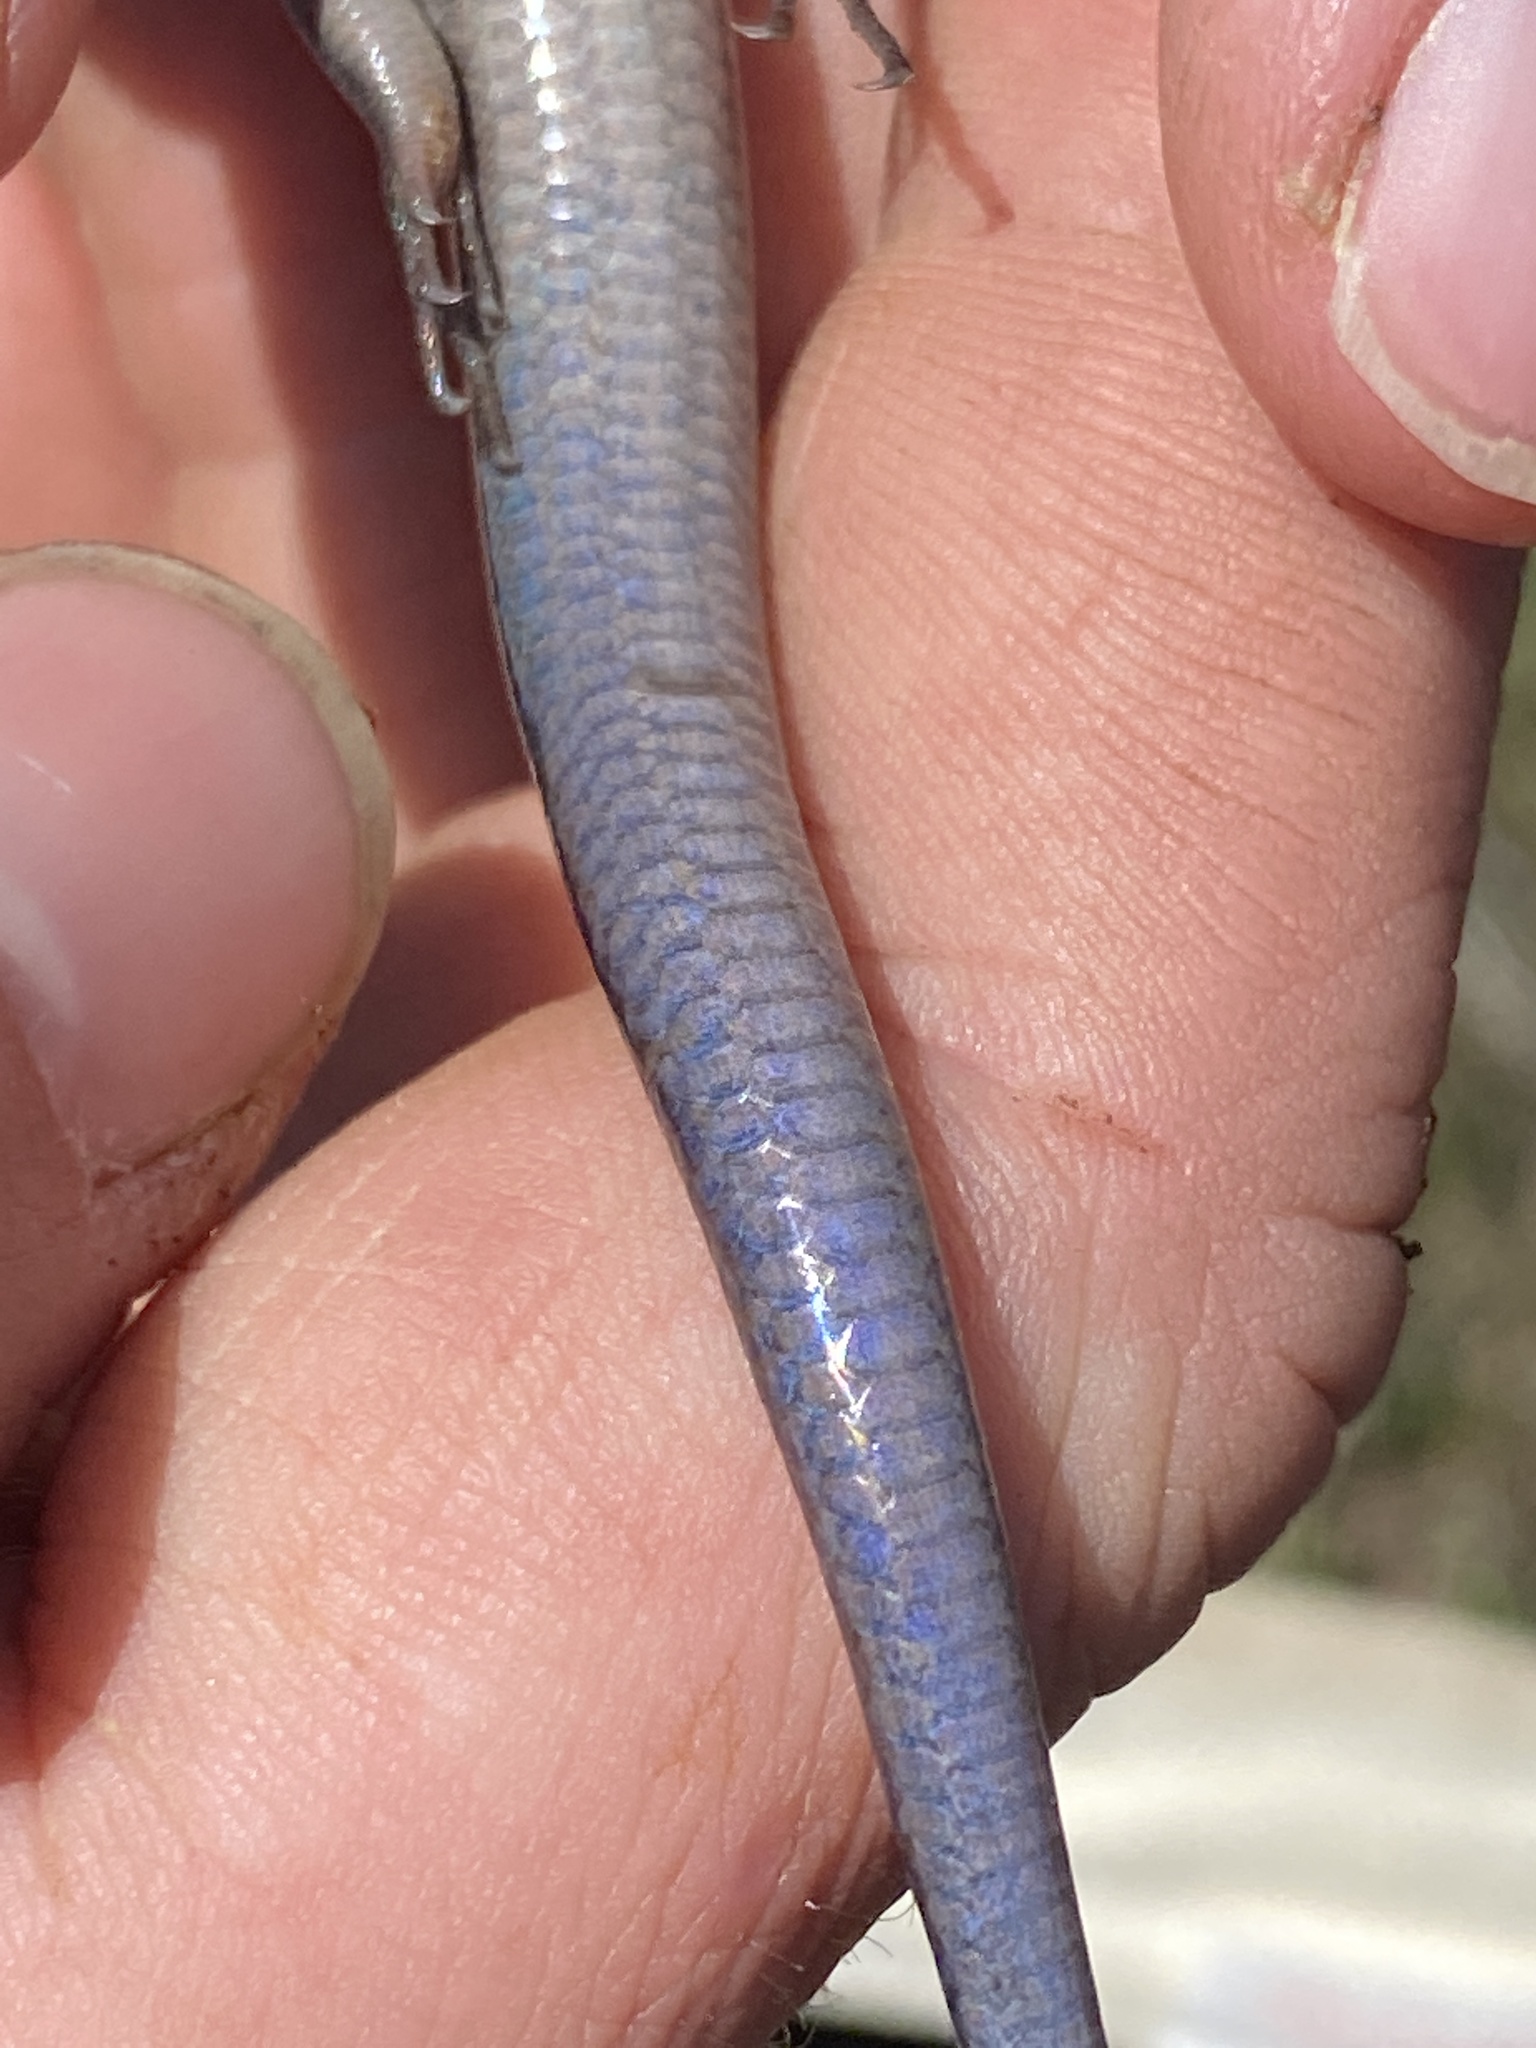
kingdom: Animalia
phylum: Chordata
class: Squamata
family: Scincidae
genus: Plestiodon
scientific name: Plestiodon fasciatus
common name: Five-lined skink
